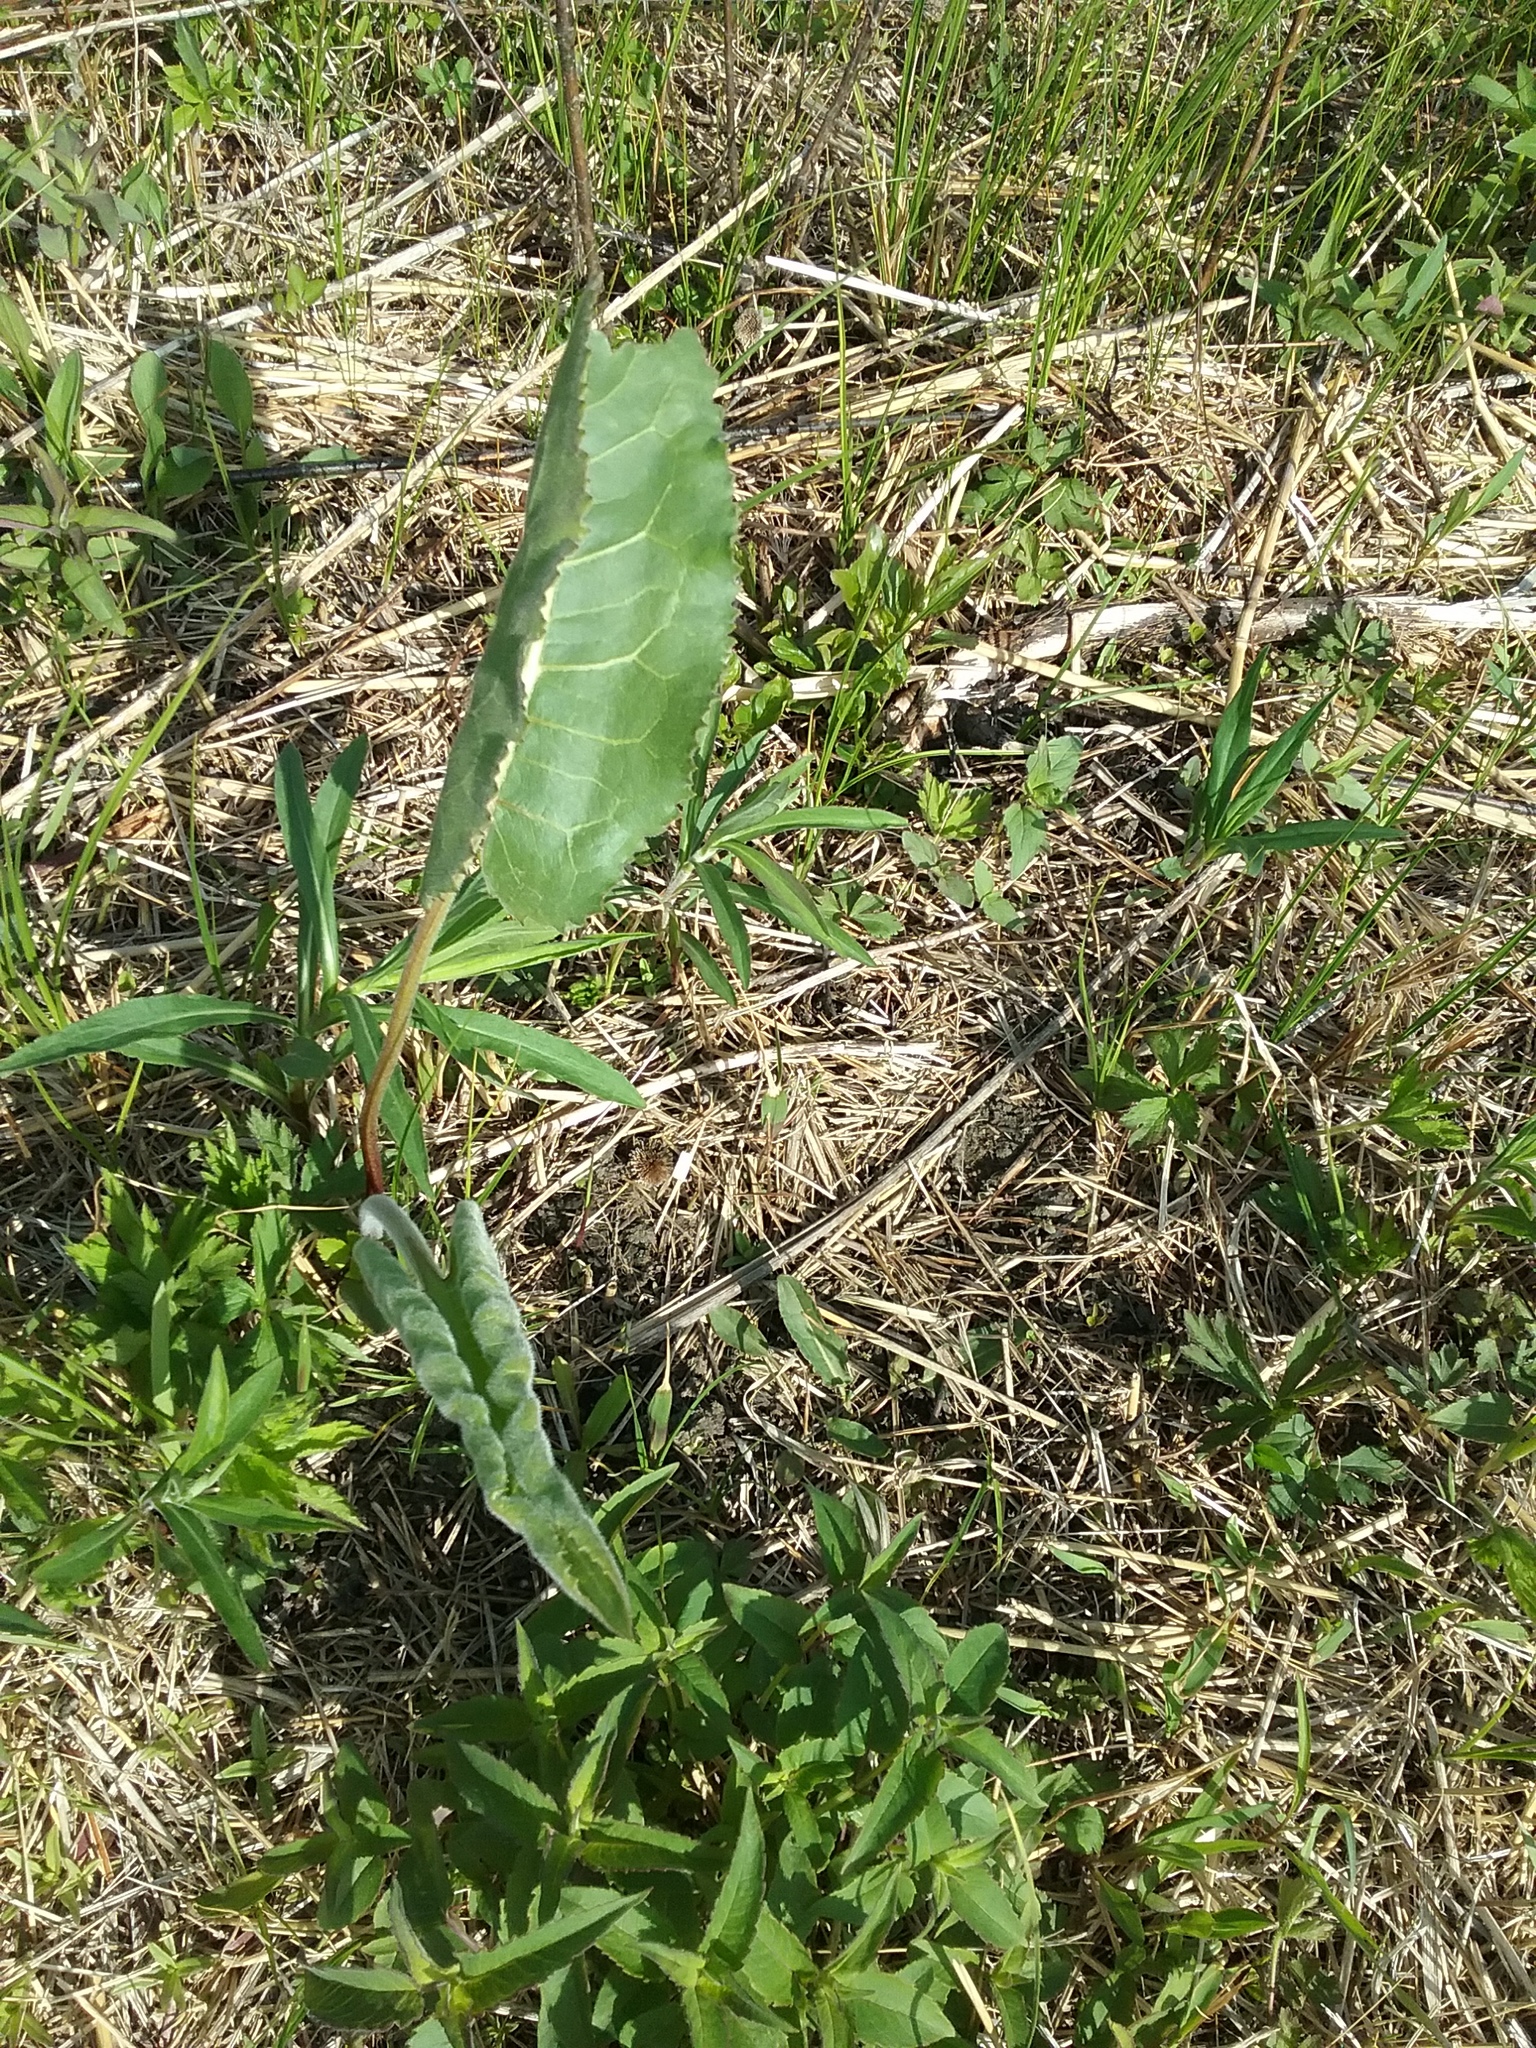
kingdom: Plantae
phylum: Tracheophyta
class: Magnoliopsida
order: Asterales
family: Asteraceae
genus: Silphium
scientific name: Silphium terebinthinaceum
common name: Basal-leaf rosinweed
